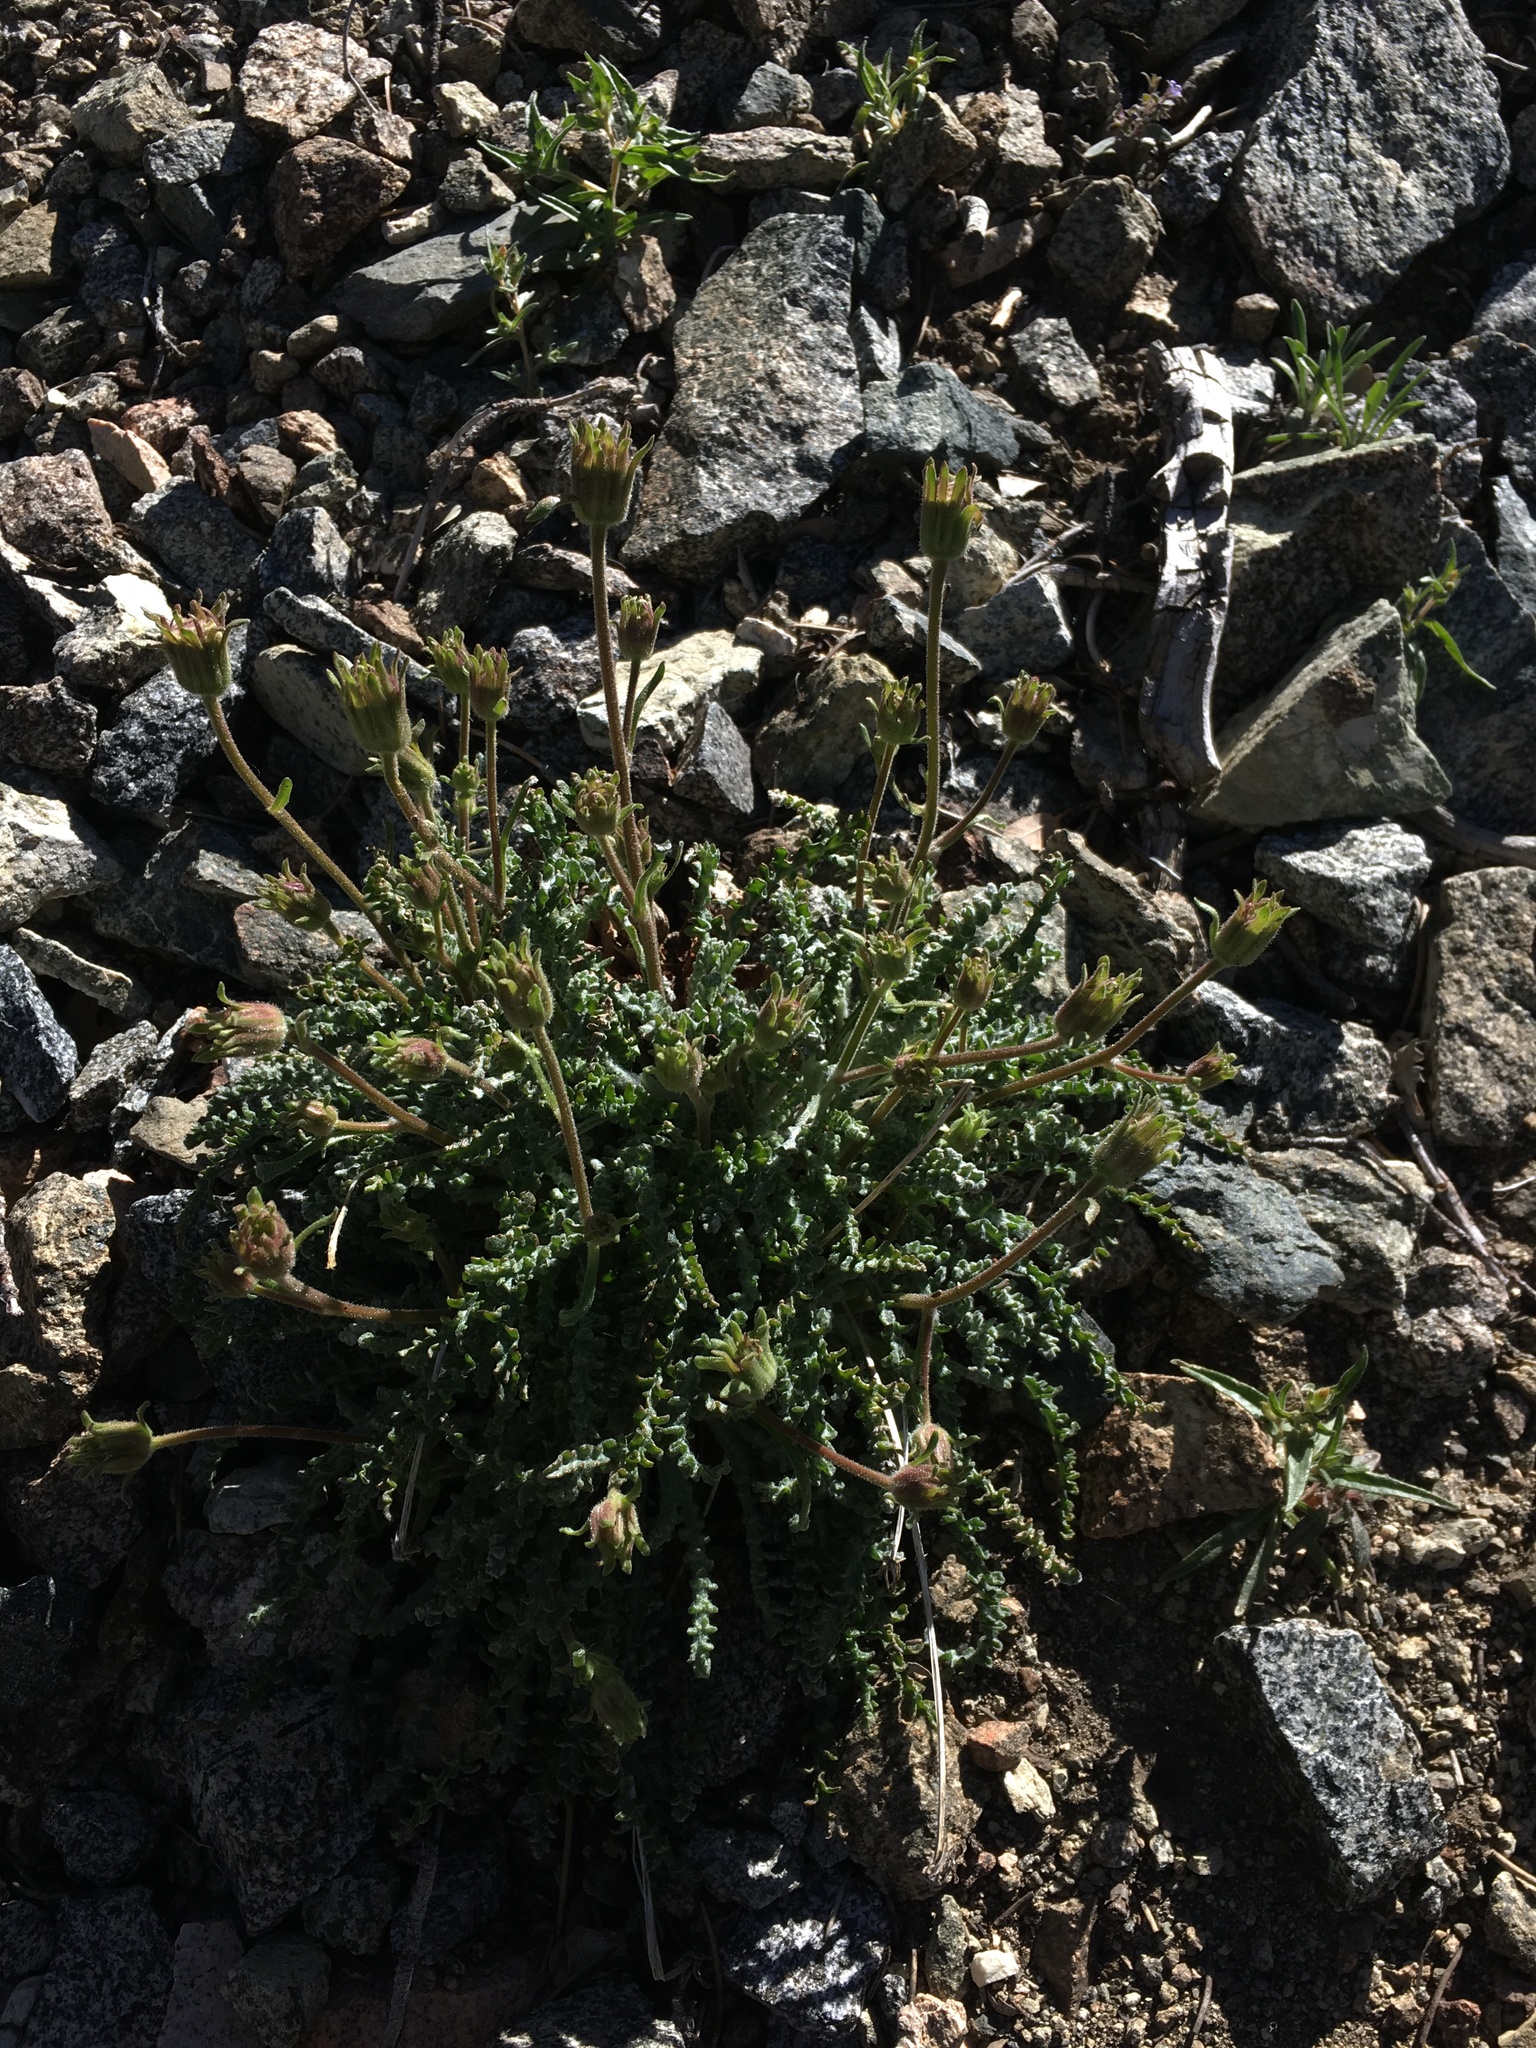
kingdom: Plantae
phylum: Tracheophyta
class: Magnoliopsida
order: Asterales
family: Asteraceae
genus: Chaenactis
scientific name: Chaenactis santolinoides
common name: Santolina pincushion
